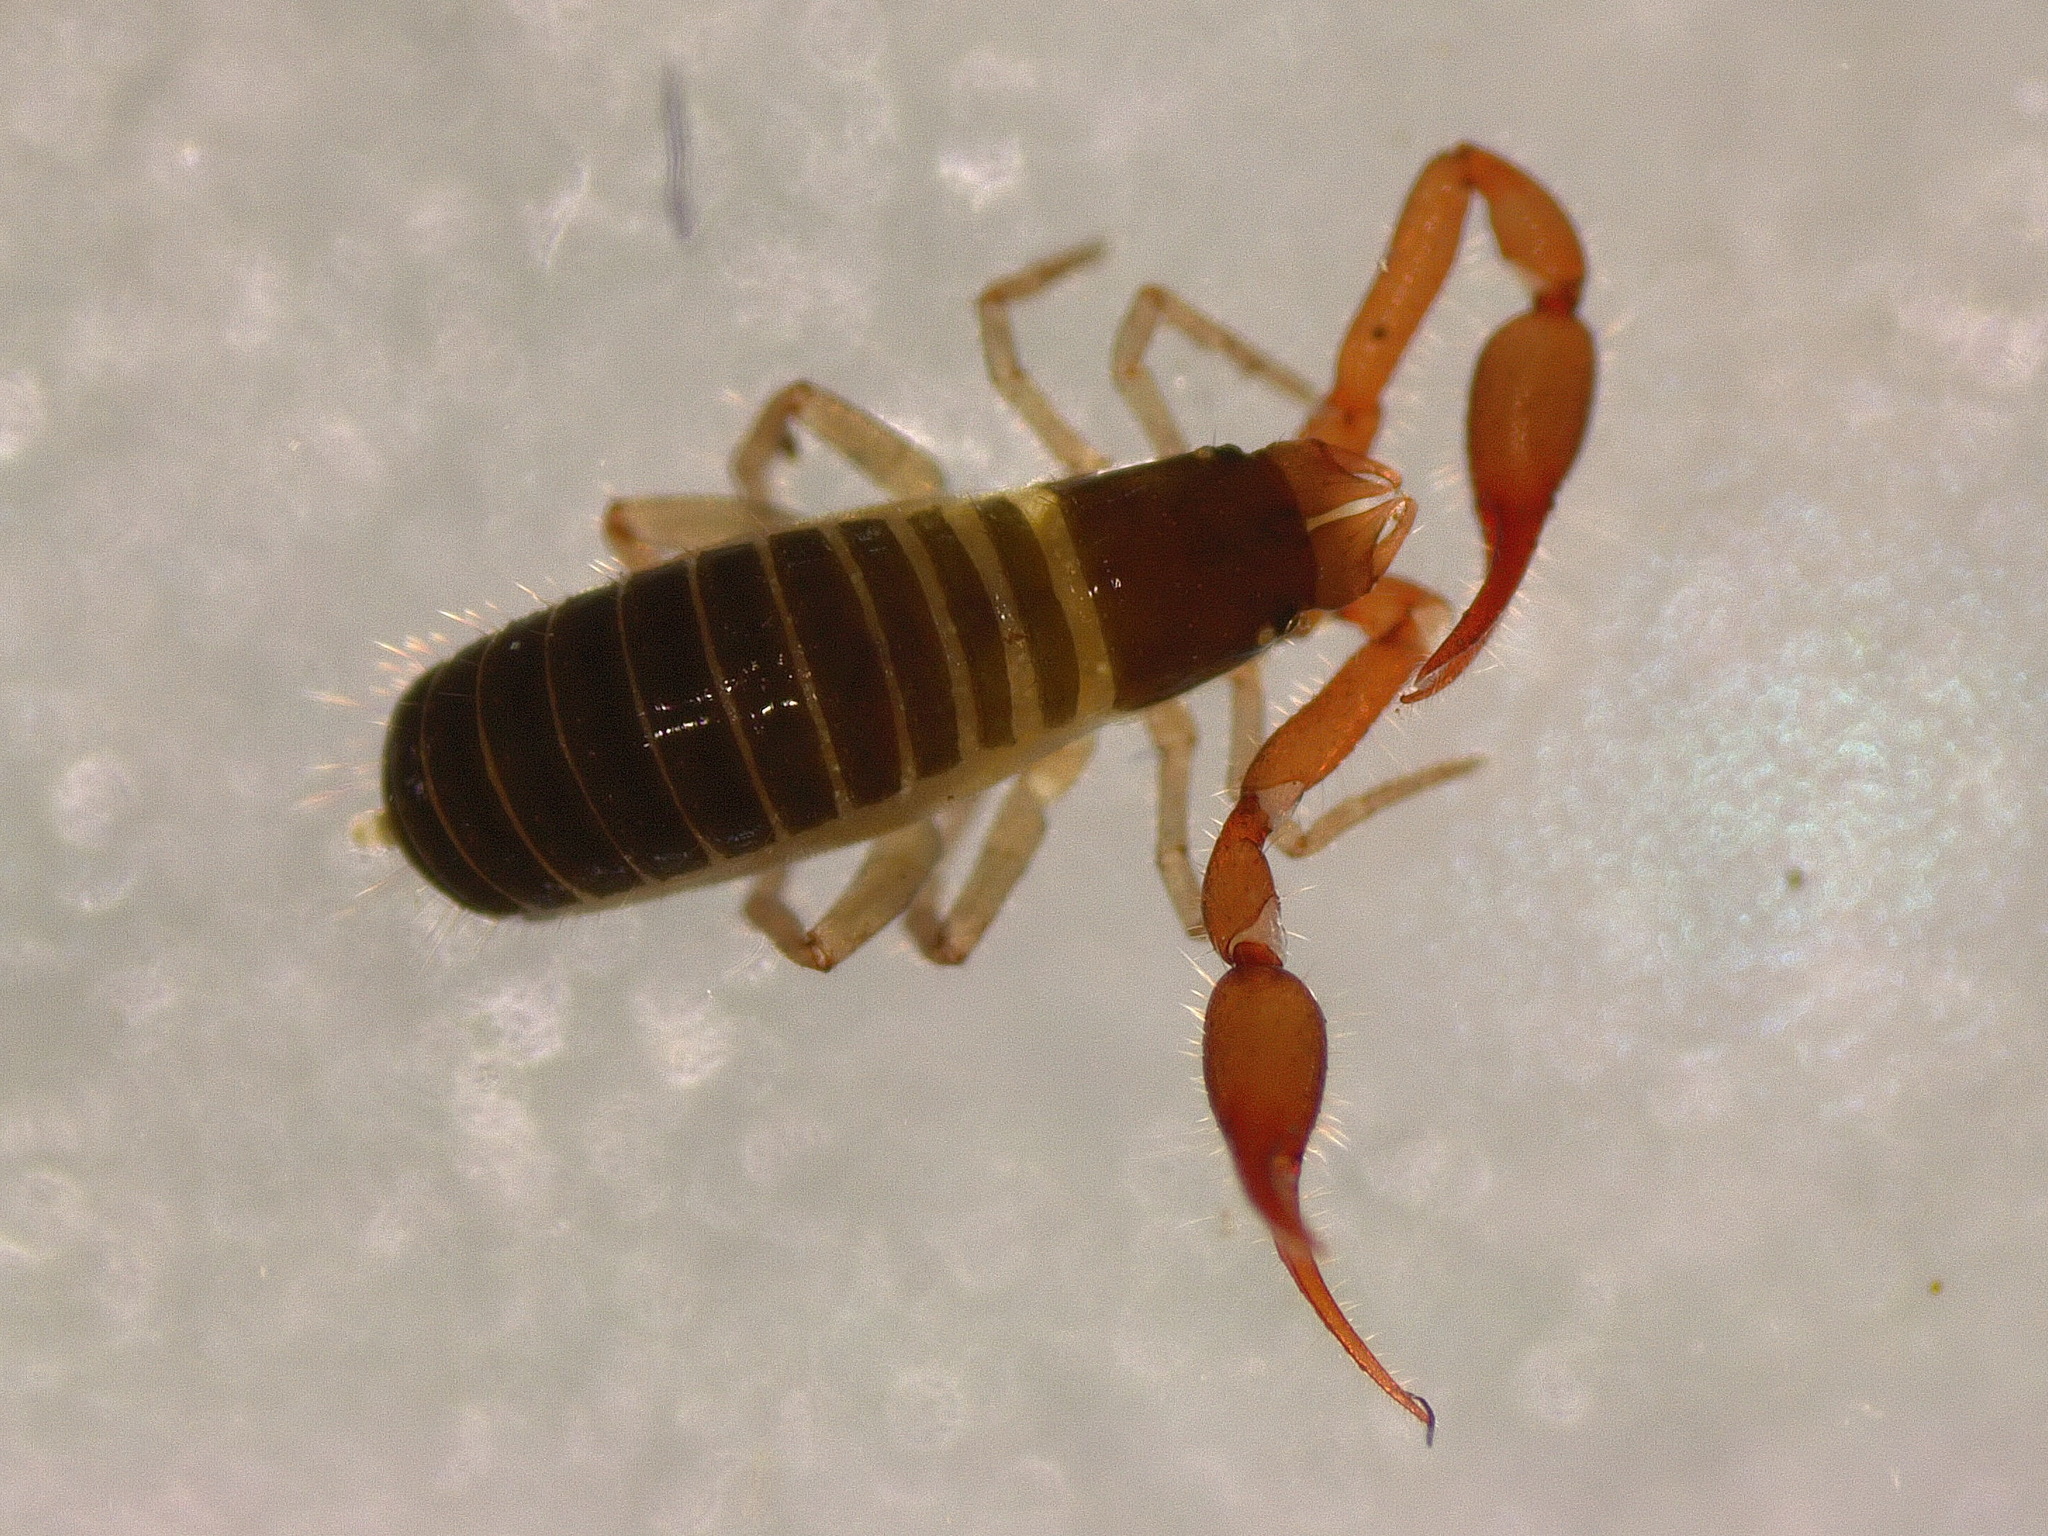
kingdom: Animalia
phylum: Arthropoda
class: Arachnida
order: Pseudoscorpiones
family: Neobisiidae
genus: Neobisium
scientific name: Neobisium carcinoides
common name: Common neobisid
